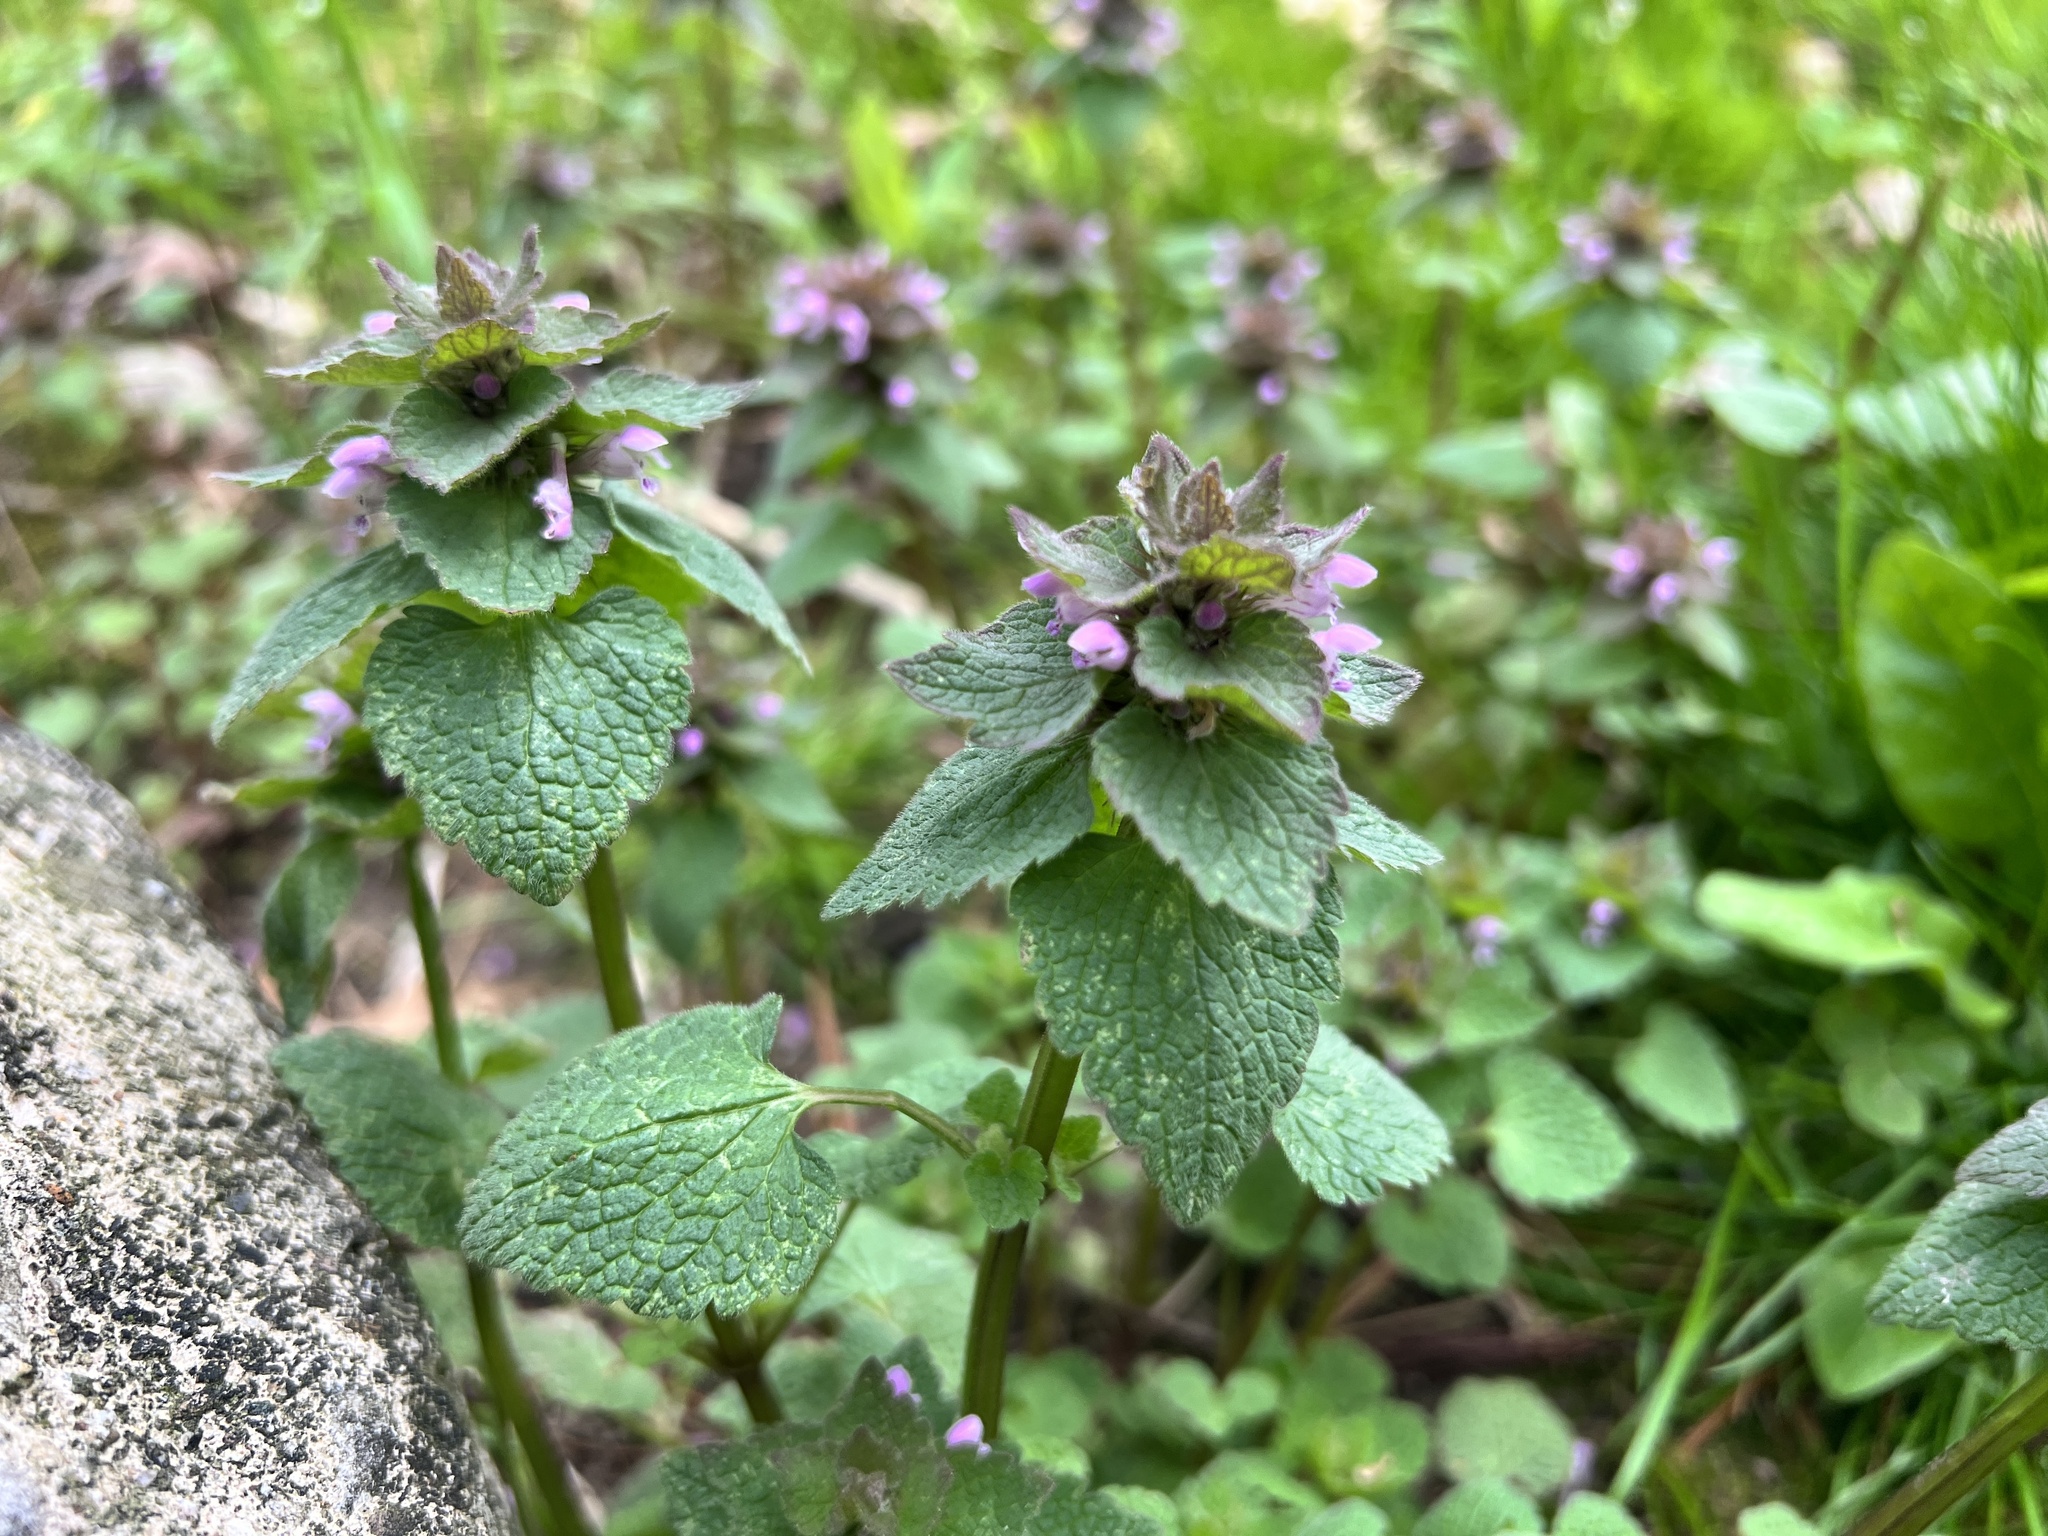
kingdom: Plantae
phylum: Tracheophyta
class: Magnoliopsida
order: Lamiales
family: Lamiaceae
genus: Lamium
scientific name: Lamium purpureum
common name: Red dead-nettle
